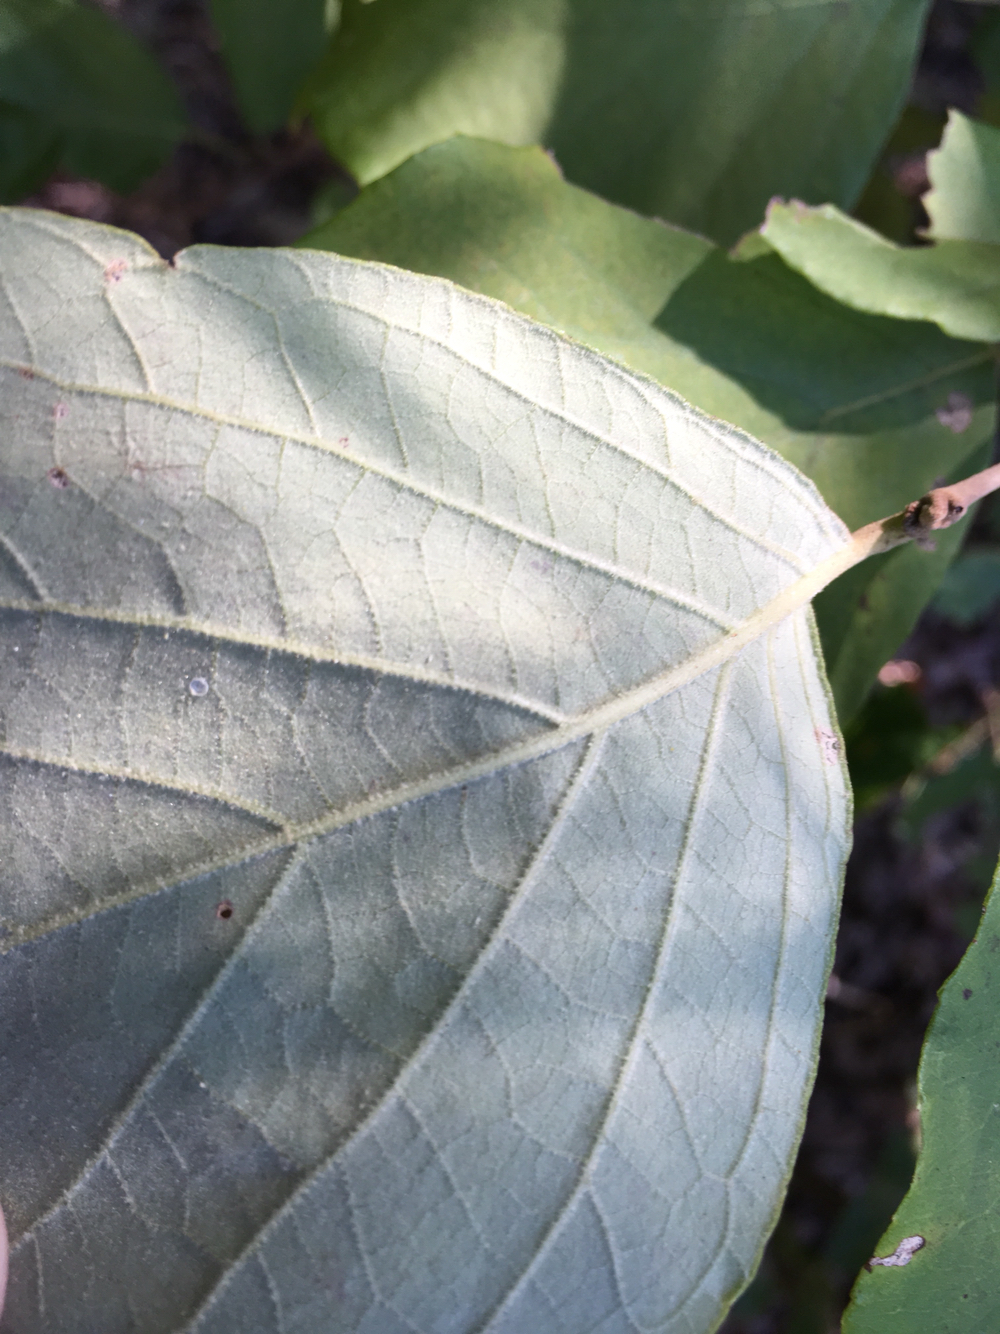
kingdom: Plantae
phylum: Tracheophyta
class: Magnoliopsida
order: Ericales
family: Styracaceae
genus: Styrax
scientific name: Styrax grandifolius
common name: Big-leaf snowbell
